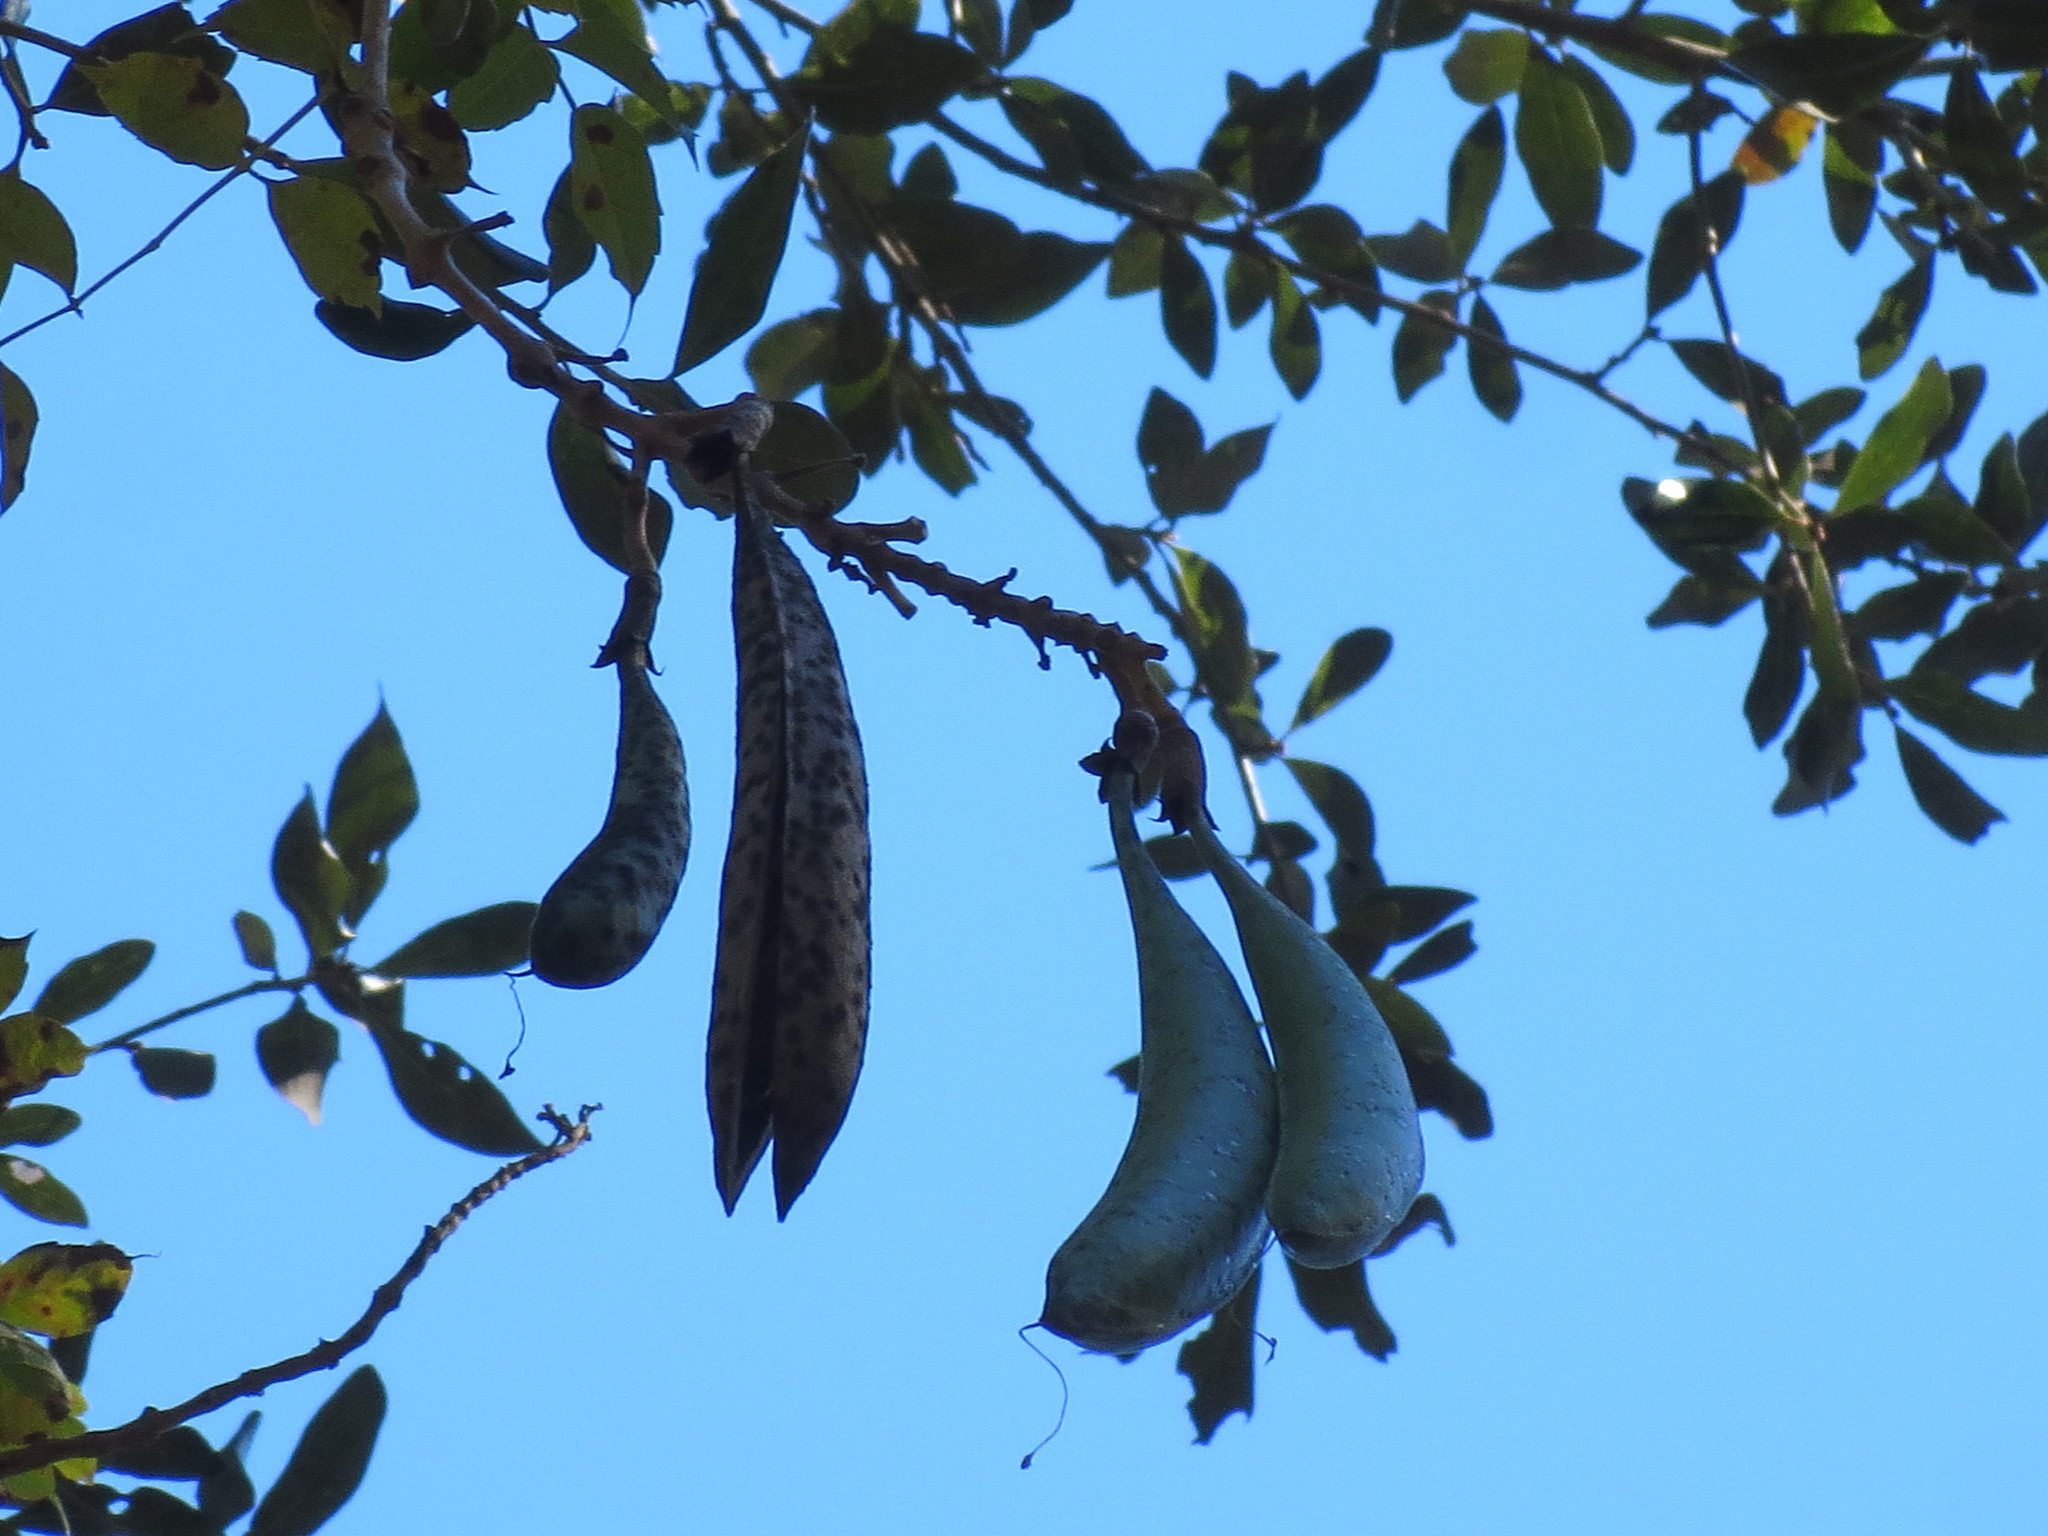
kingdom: Plantae
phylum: Tracheophyta
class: Magnoliopsida
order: Lamiales
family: Bignoniaceae
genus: Campsis
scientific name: Campsis radicans
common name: Trumpet-creeper
